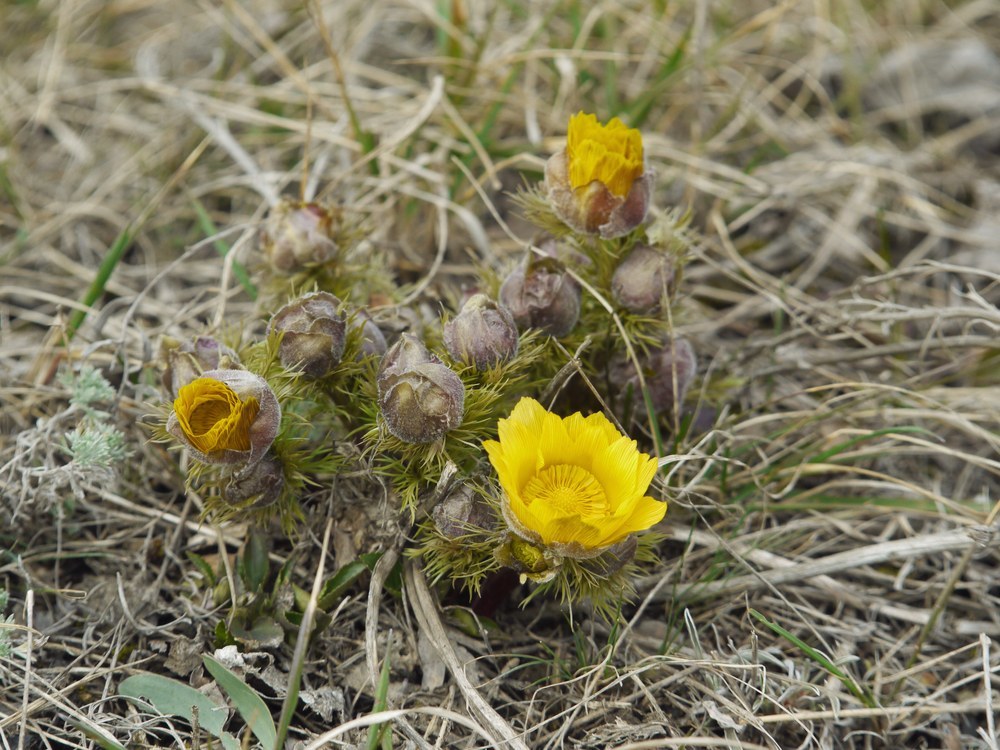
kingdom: Plantae
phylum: Tracheophyta
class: Magnoliopsida
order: Ranunculales
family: Ranunculaceae
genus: Adonis
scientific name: Adonis vernalis
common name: Yellow pheasants-eye
